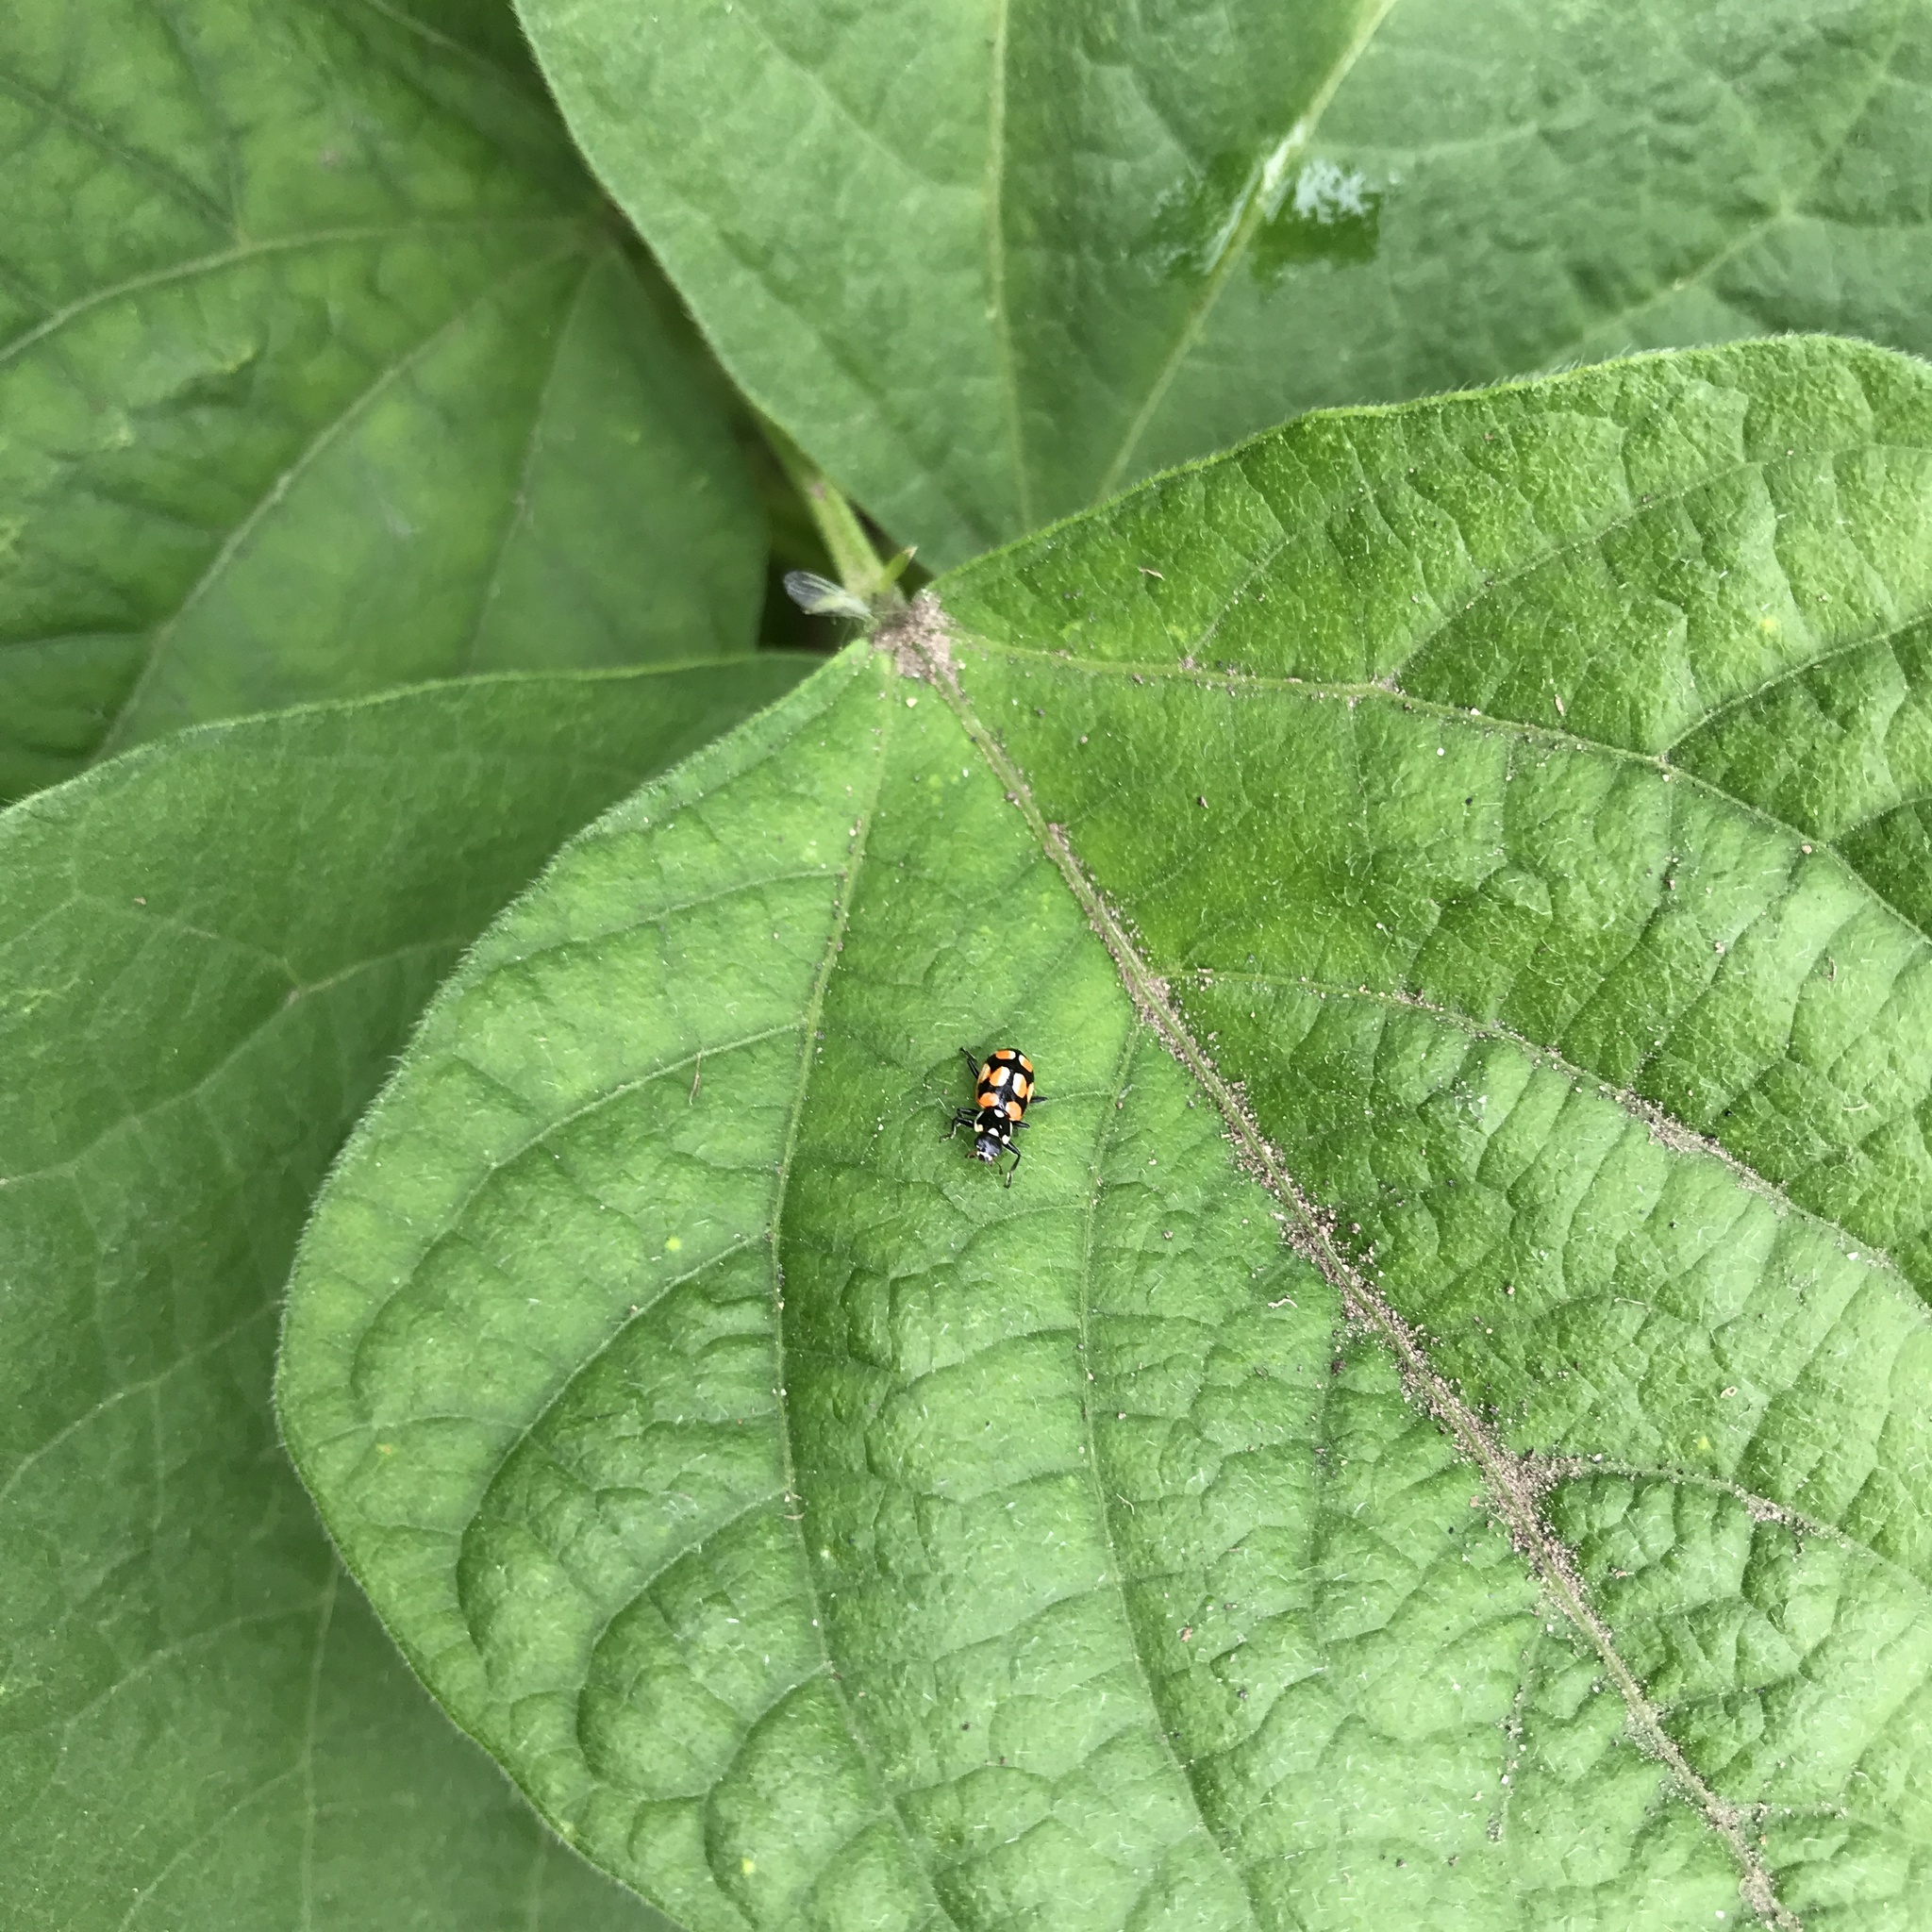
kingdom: Animalia
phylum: Arthropoda
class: Insecta
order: Coleoptera
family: Coccinellidae
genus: Eriopis
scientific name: Eriopis chilensis
